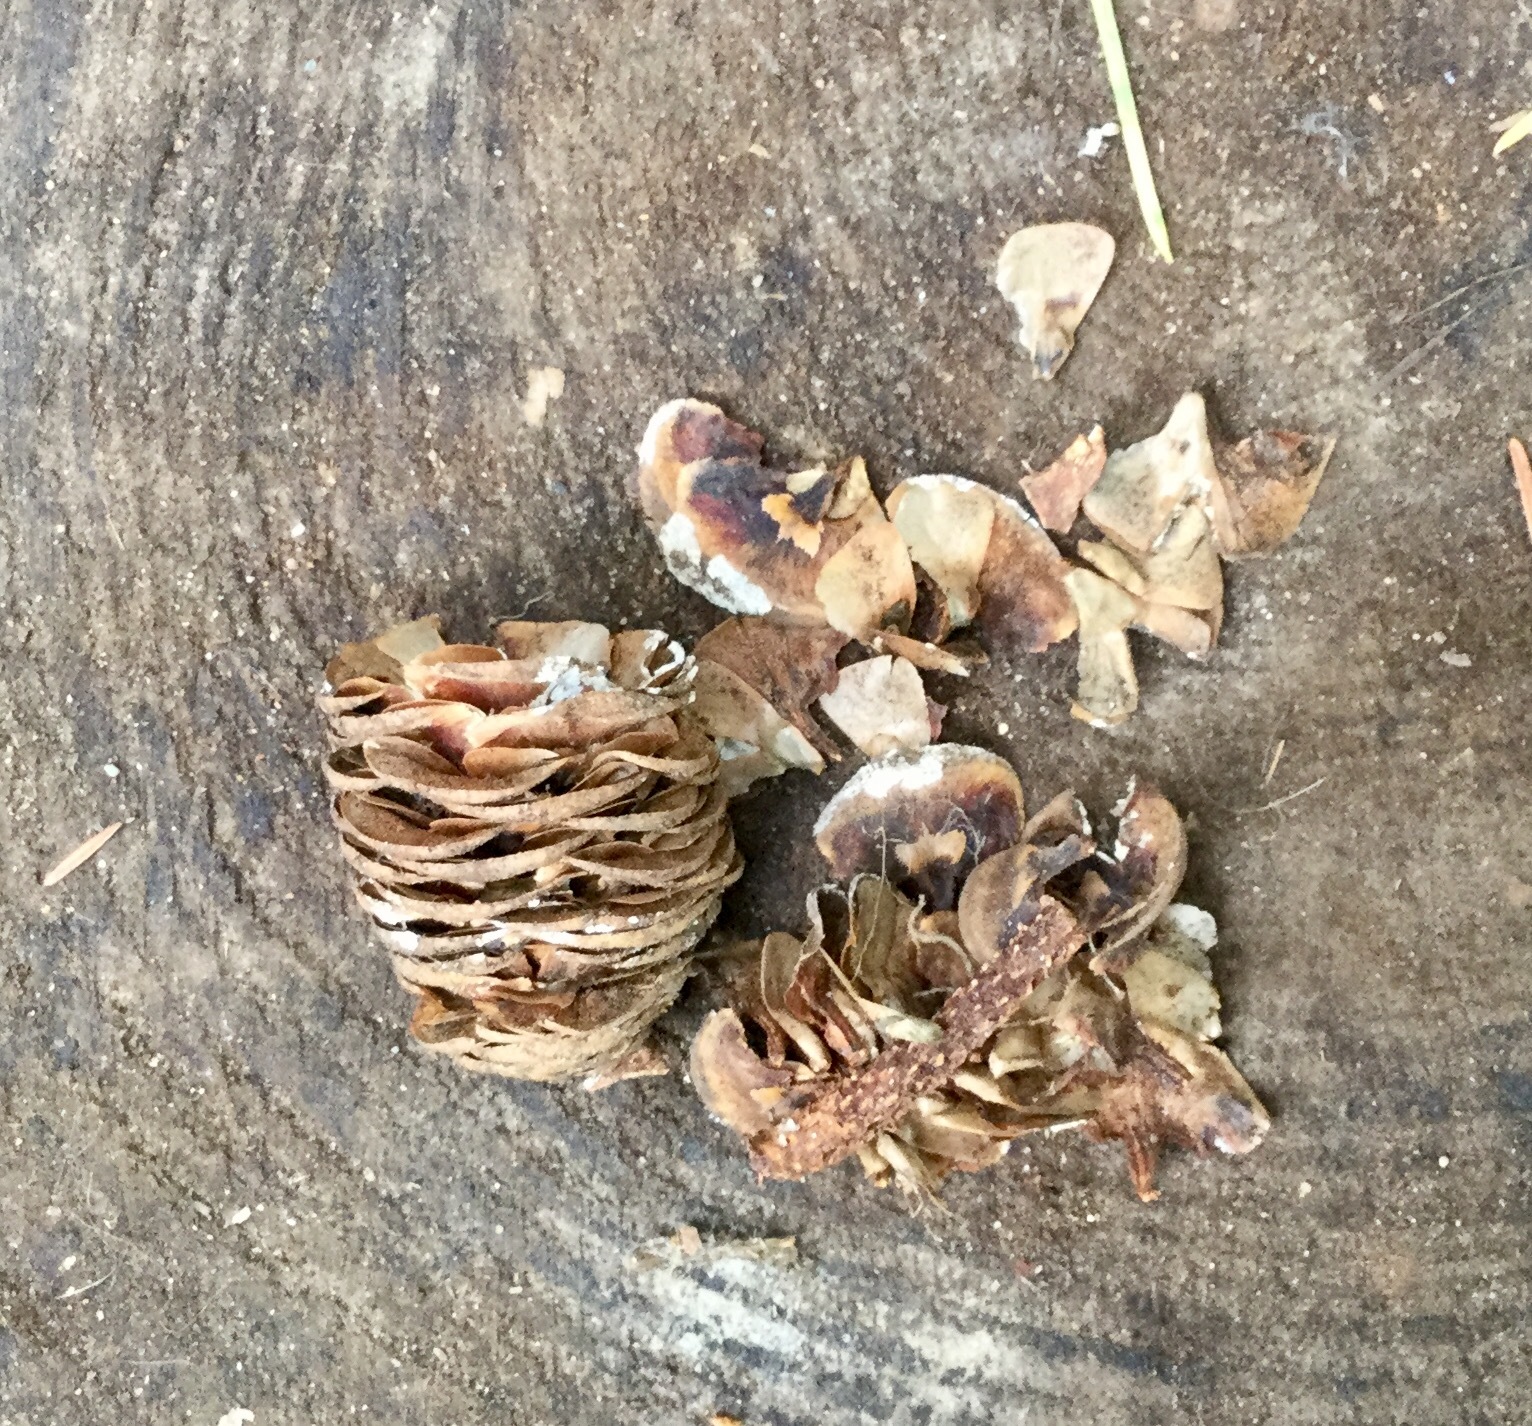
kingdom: Plantae
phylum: Tracheophyta
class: Pinopsida
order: Pinales
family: Pinaceae
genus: Abies
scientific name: Abies grandis
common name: Giant fir
